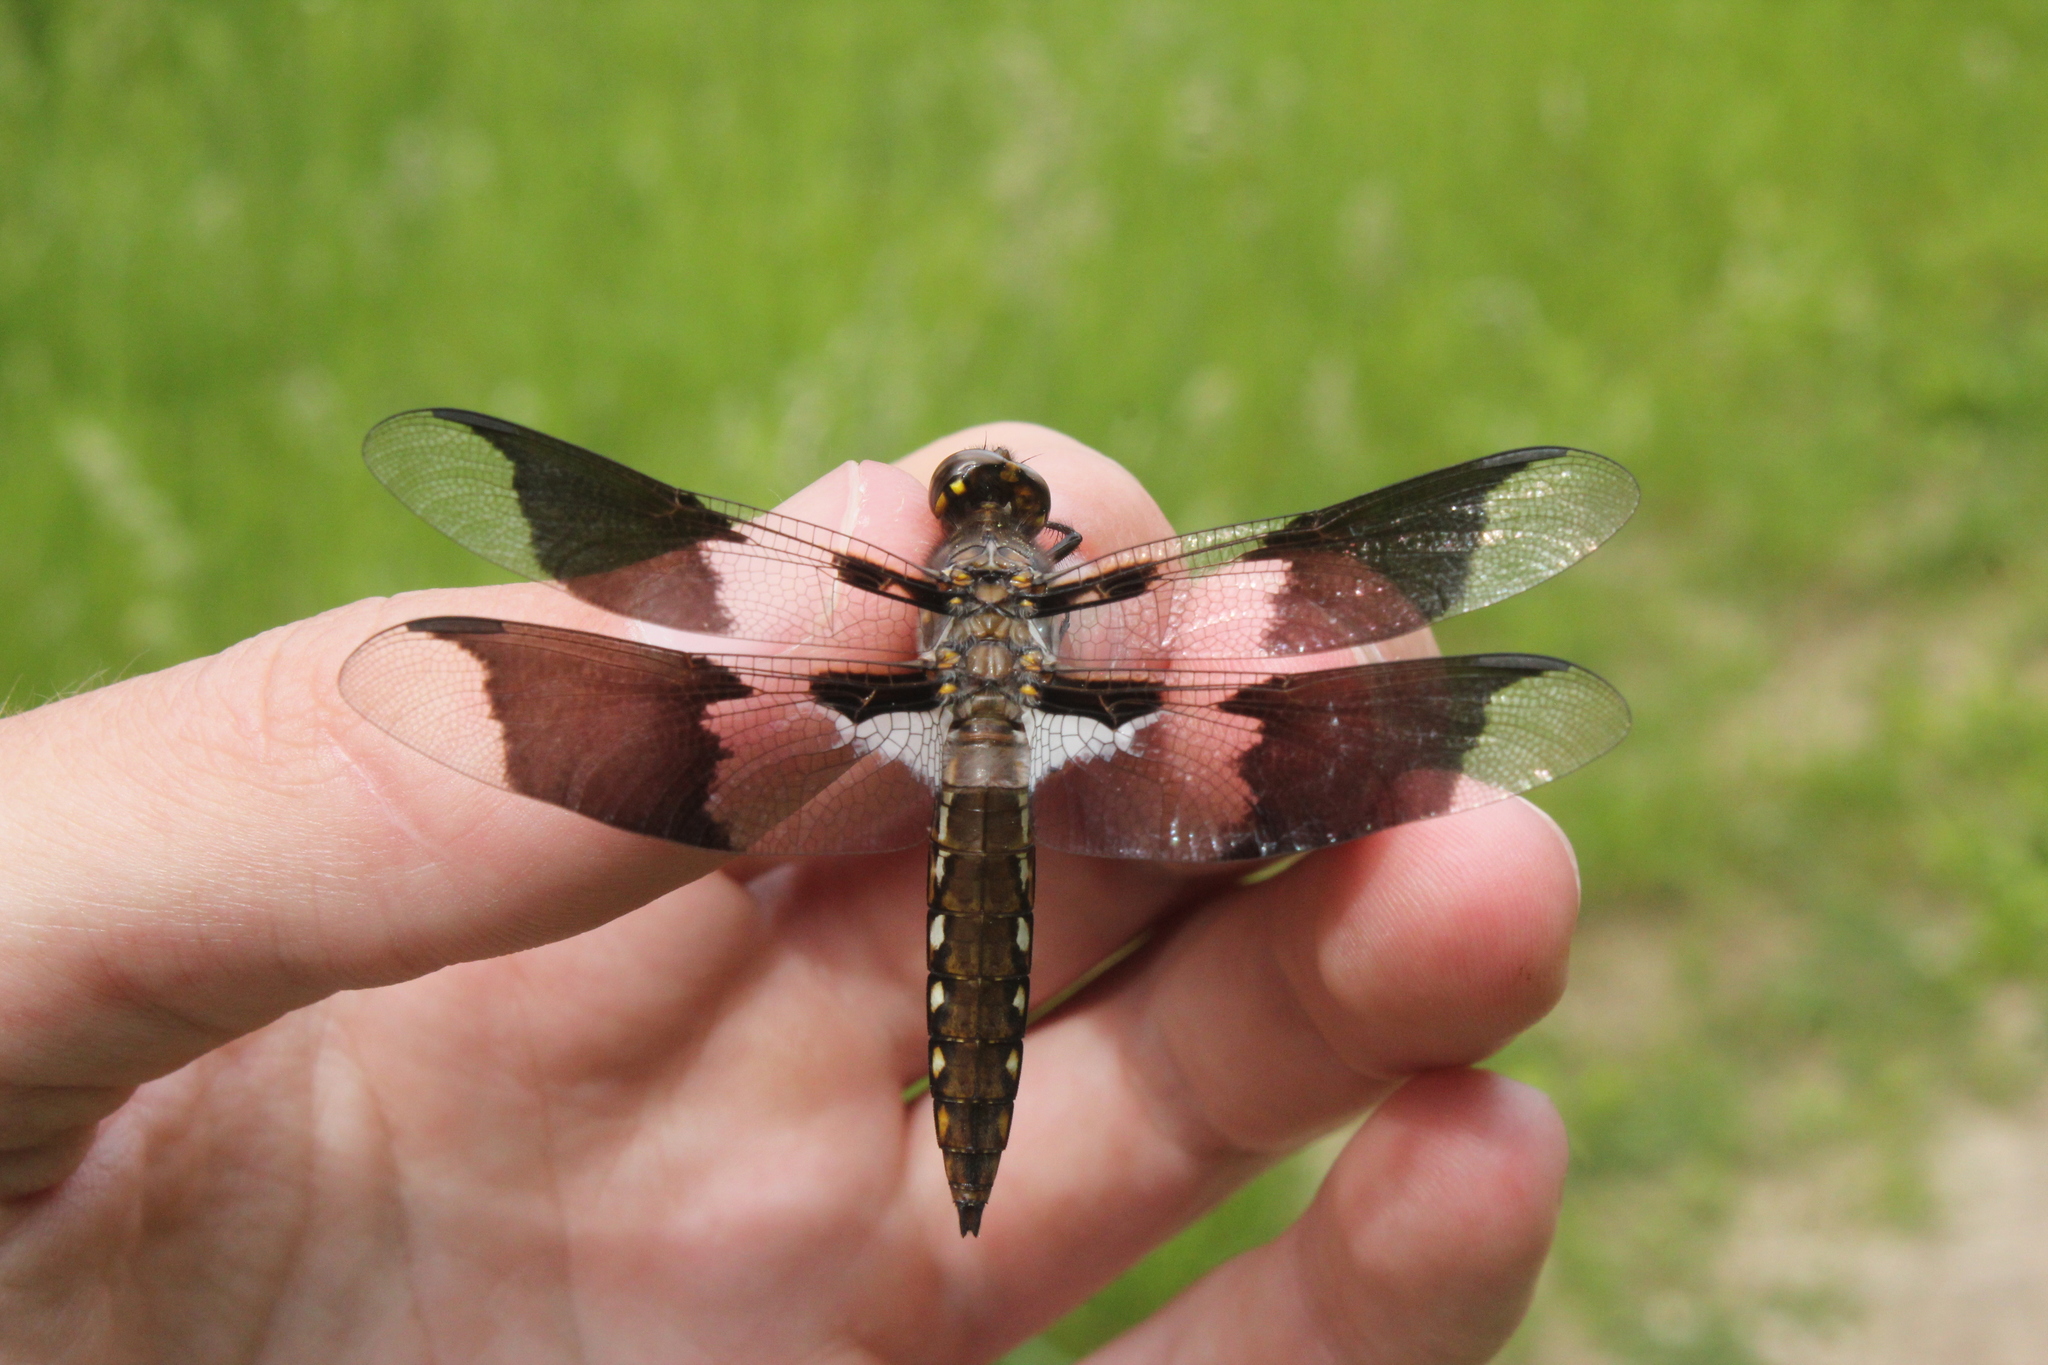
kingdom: Animalia
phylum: Arthropoda
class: Insecta
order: Odonata
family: Libellulidae
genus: Plathemis
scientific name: Plathemis lydia
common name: Common whitetail
